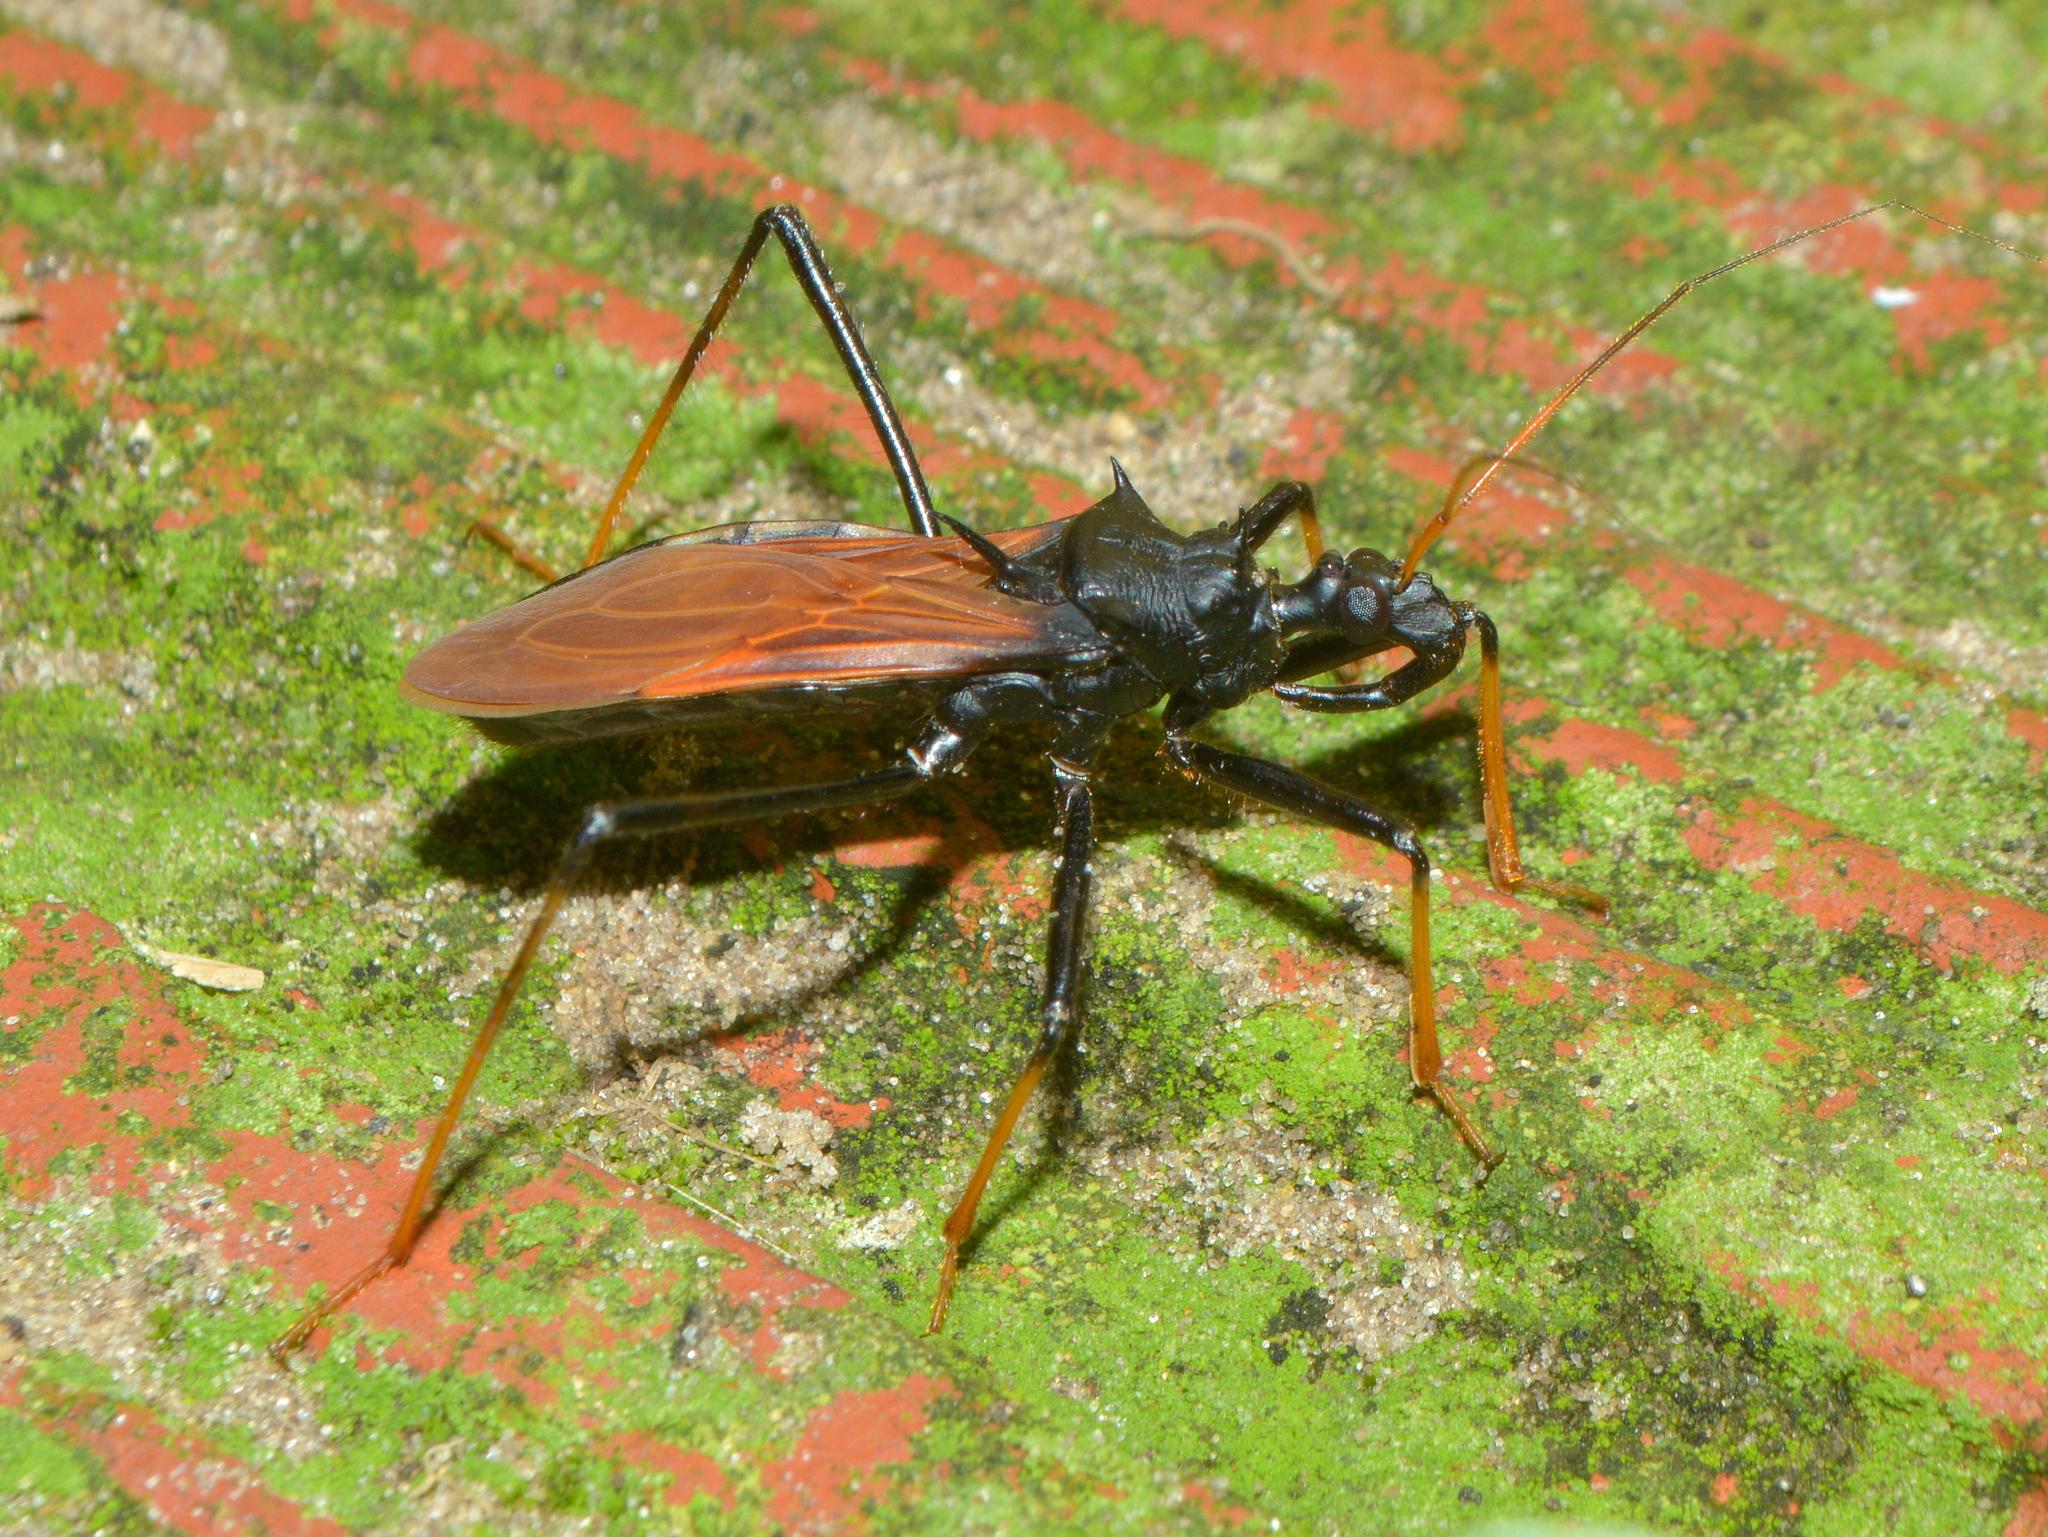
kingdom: Animalia
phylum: Arthropoda
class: Insecta
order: Hemiptera
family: Reduviidae
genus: Zelurus
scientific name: Zelurus femoralis
